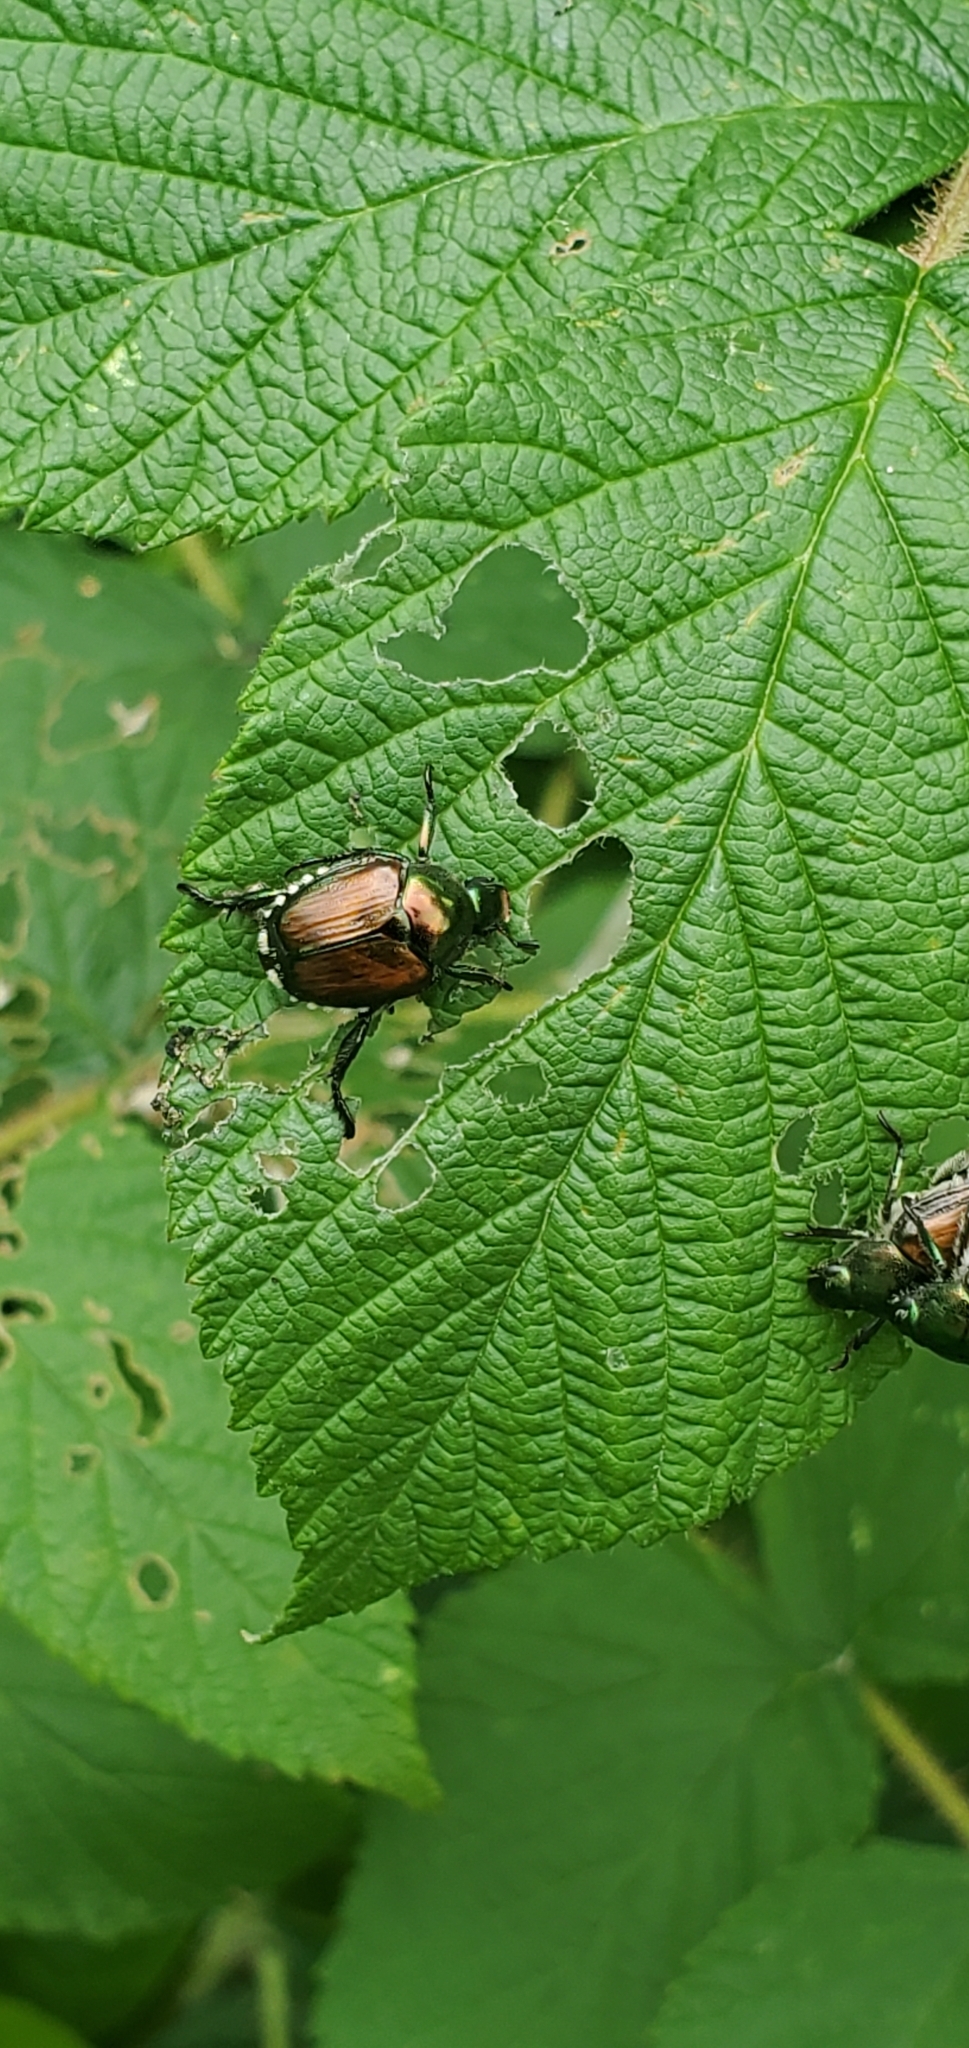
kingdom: Animalia
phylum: Arthropoda
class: Insecta
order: Coleoptera
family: Scarabaeidae
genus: Popillia
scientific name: Popillia japonica
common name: Japanese beetle
